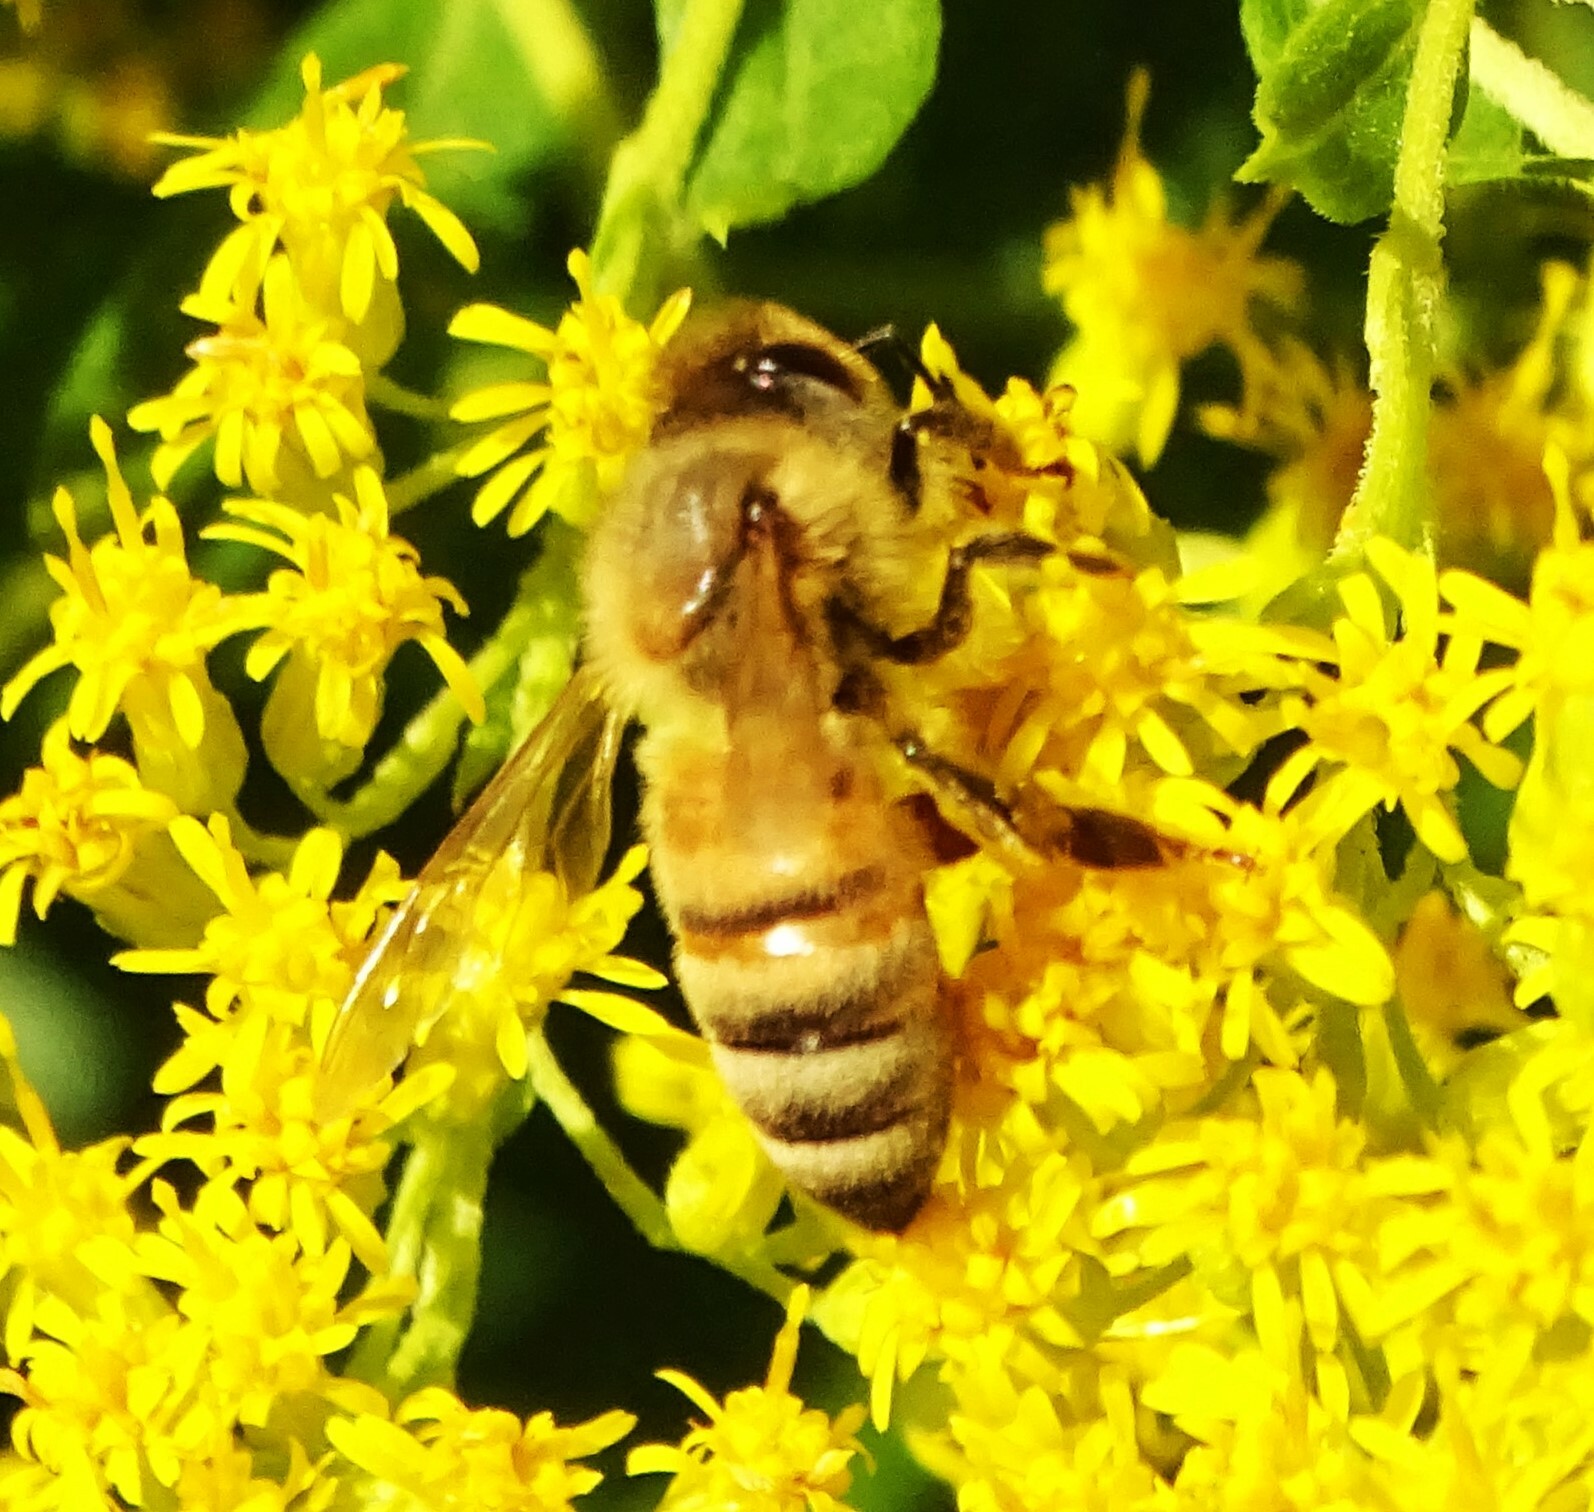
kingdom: Animalia
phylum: Arthropoda
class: Insecta
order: Hymenoptera
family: Apidae
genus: Apis
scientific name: Apis mellifera
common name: Honey bee
